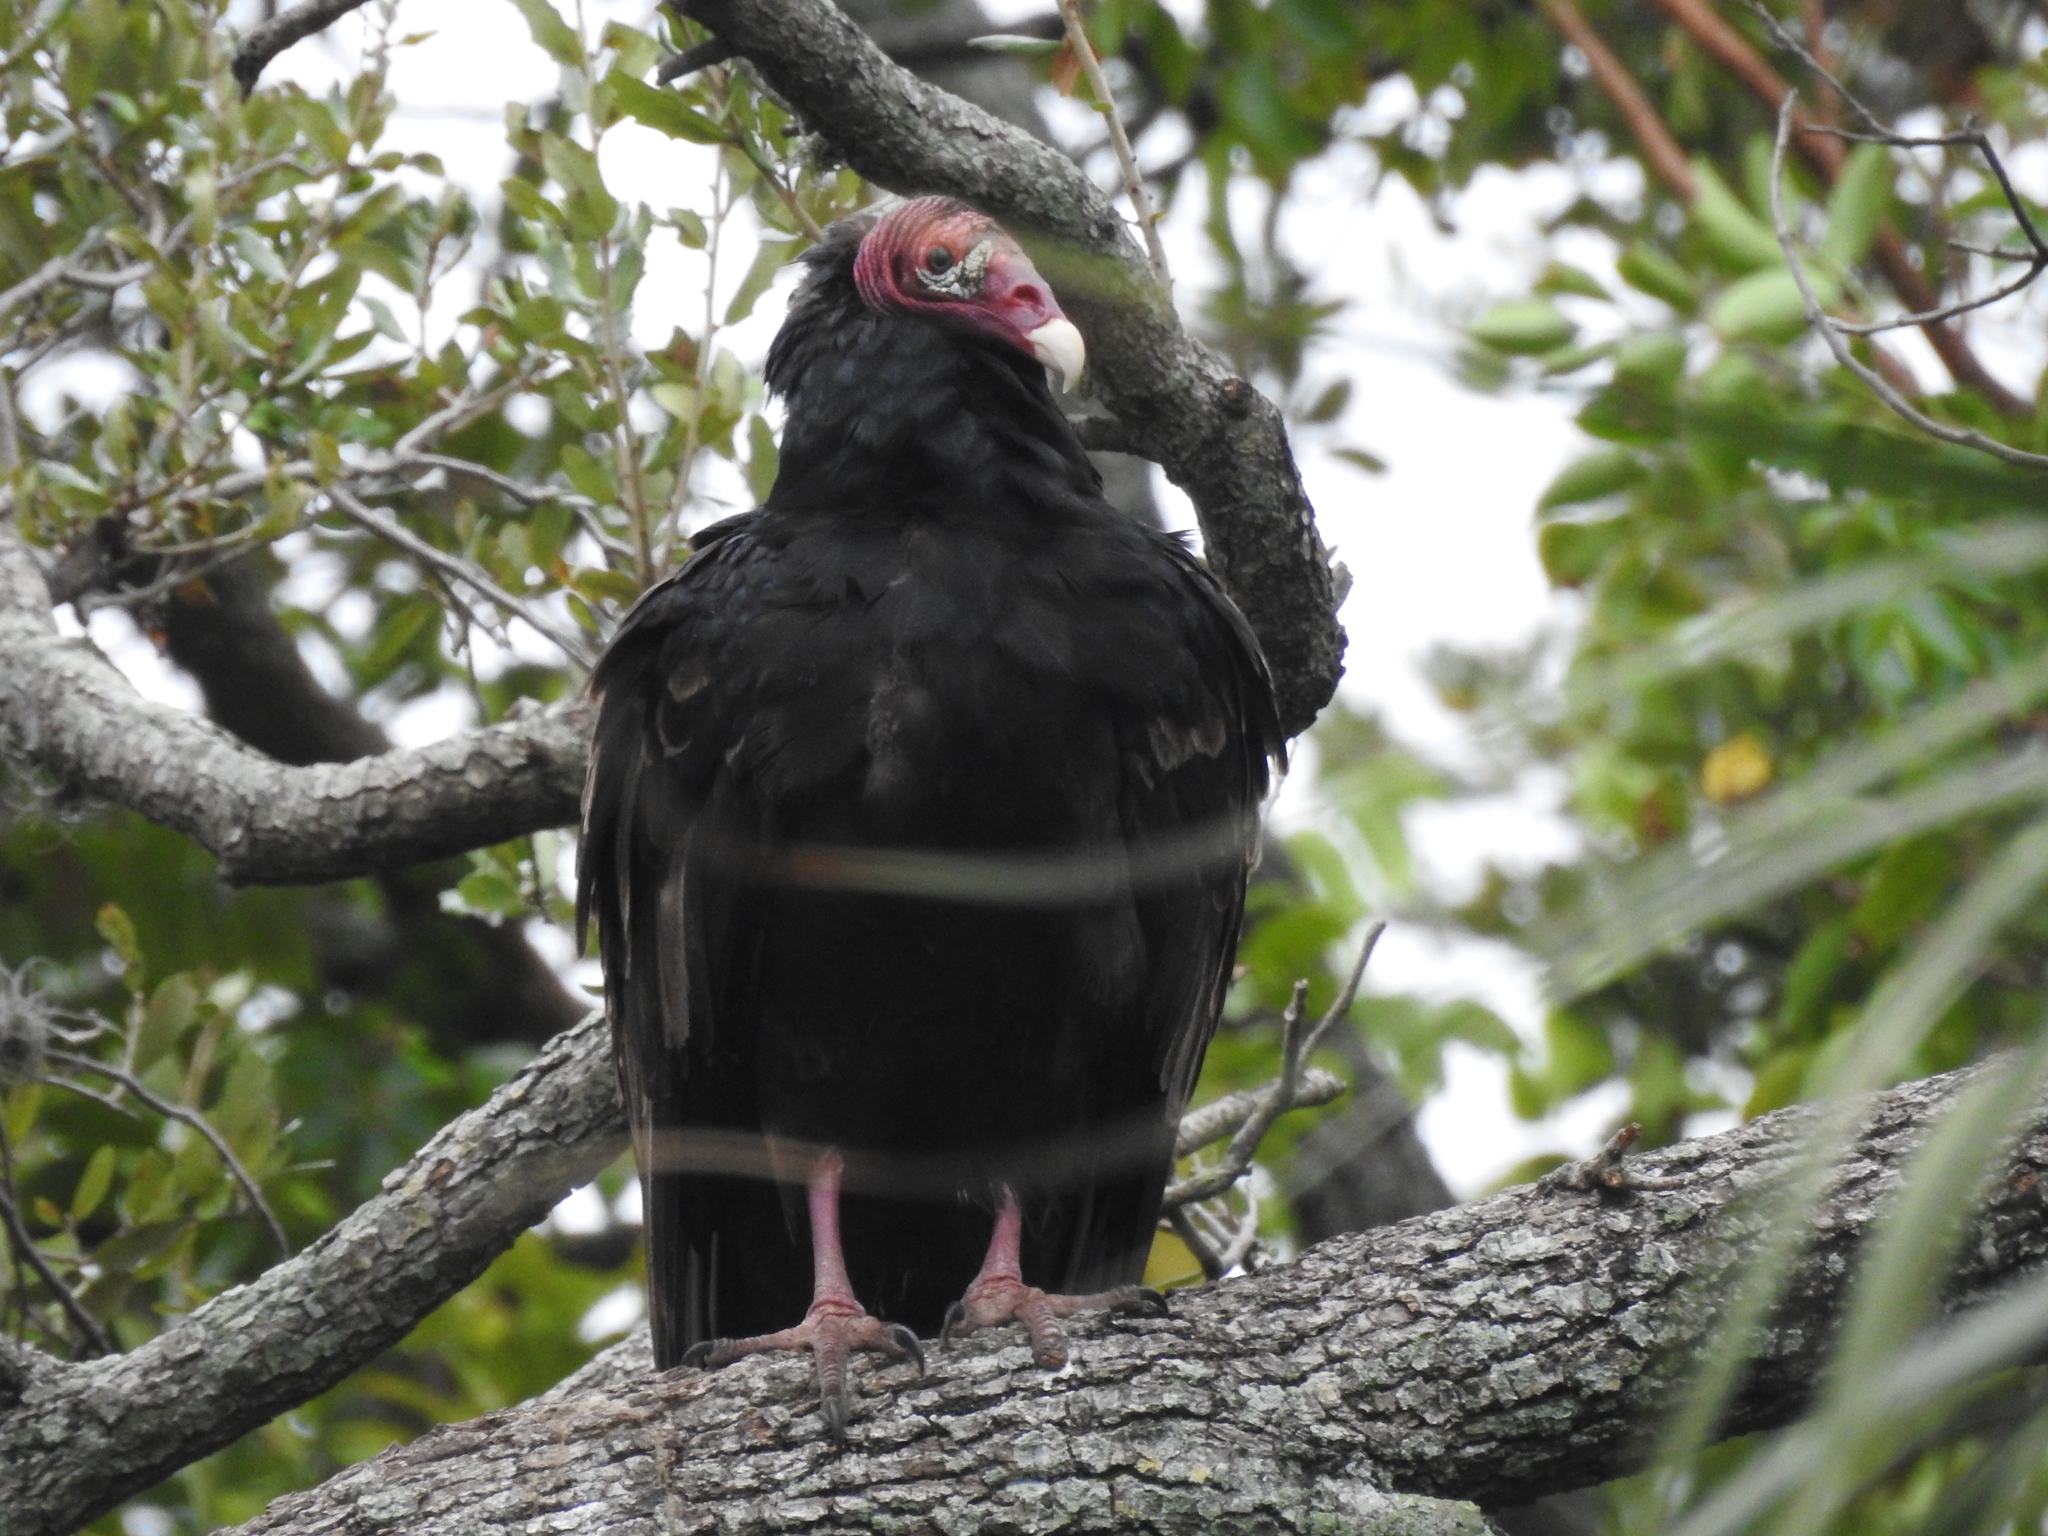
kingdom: Animalia
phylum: Chordata
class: Aves
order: Accipitriformes
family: Cathartidae
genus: Cathartes
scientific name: Cathartes aura
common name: Turkey vulture
